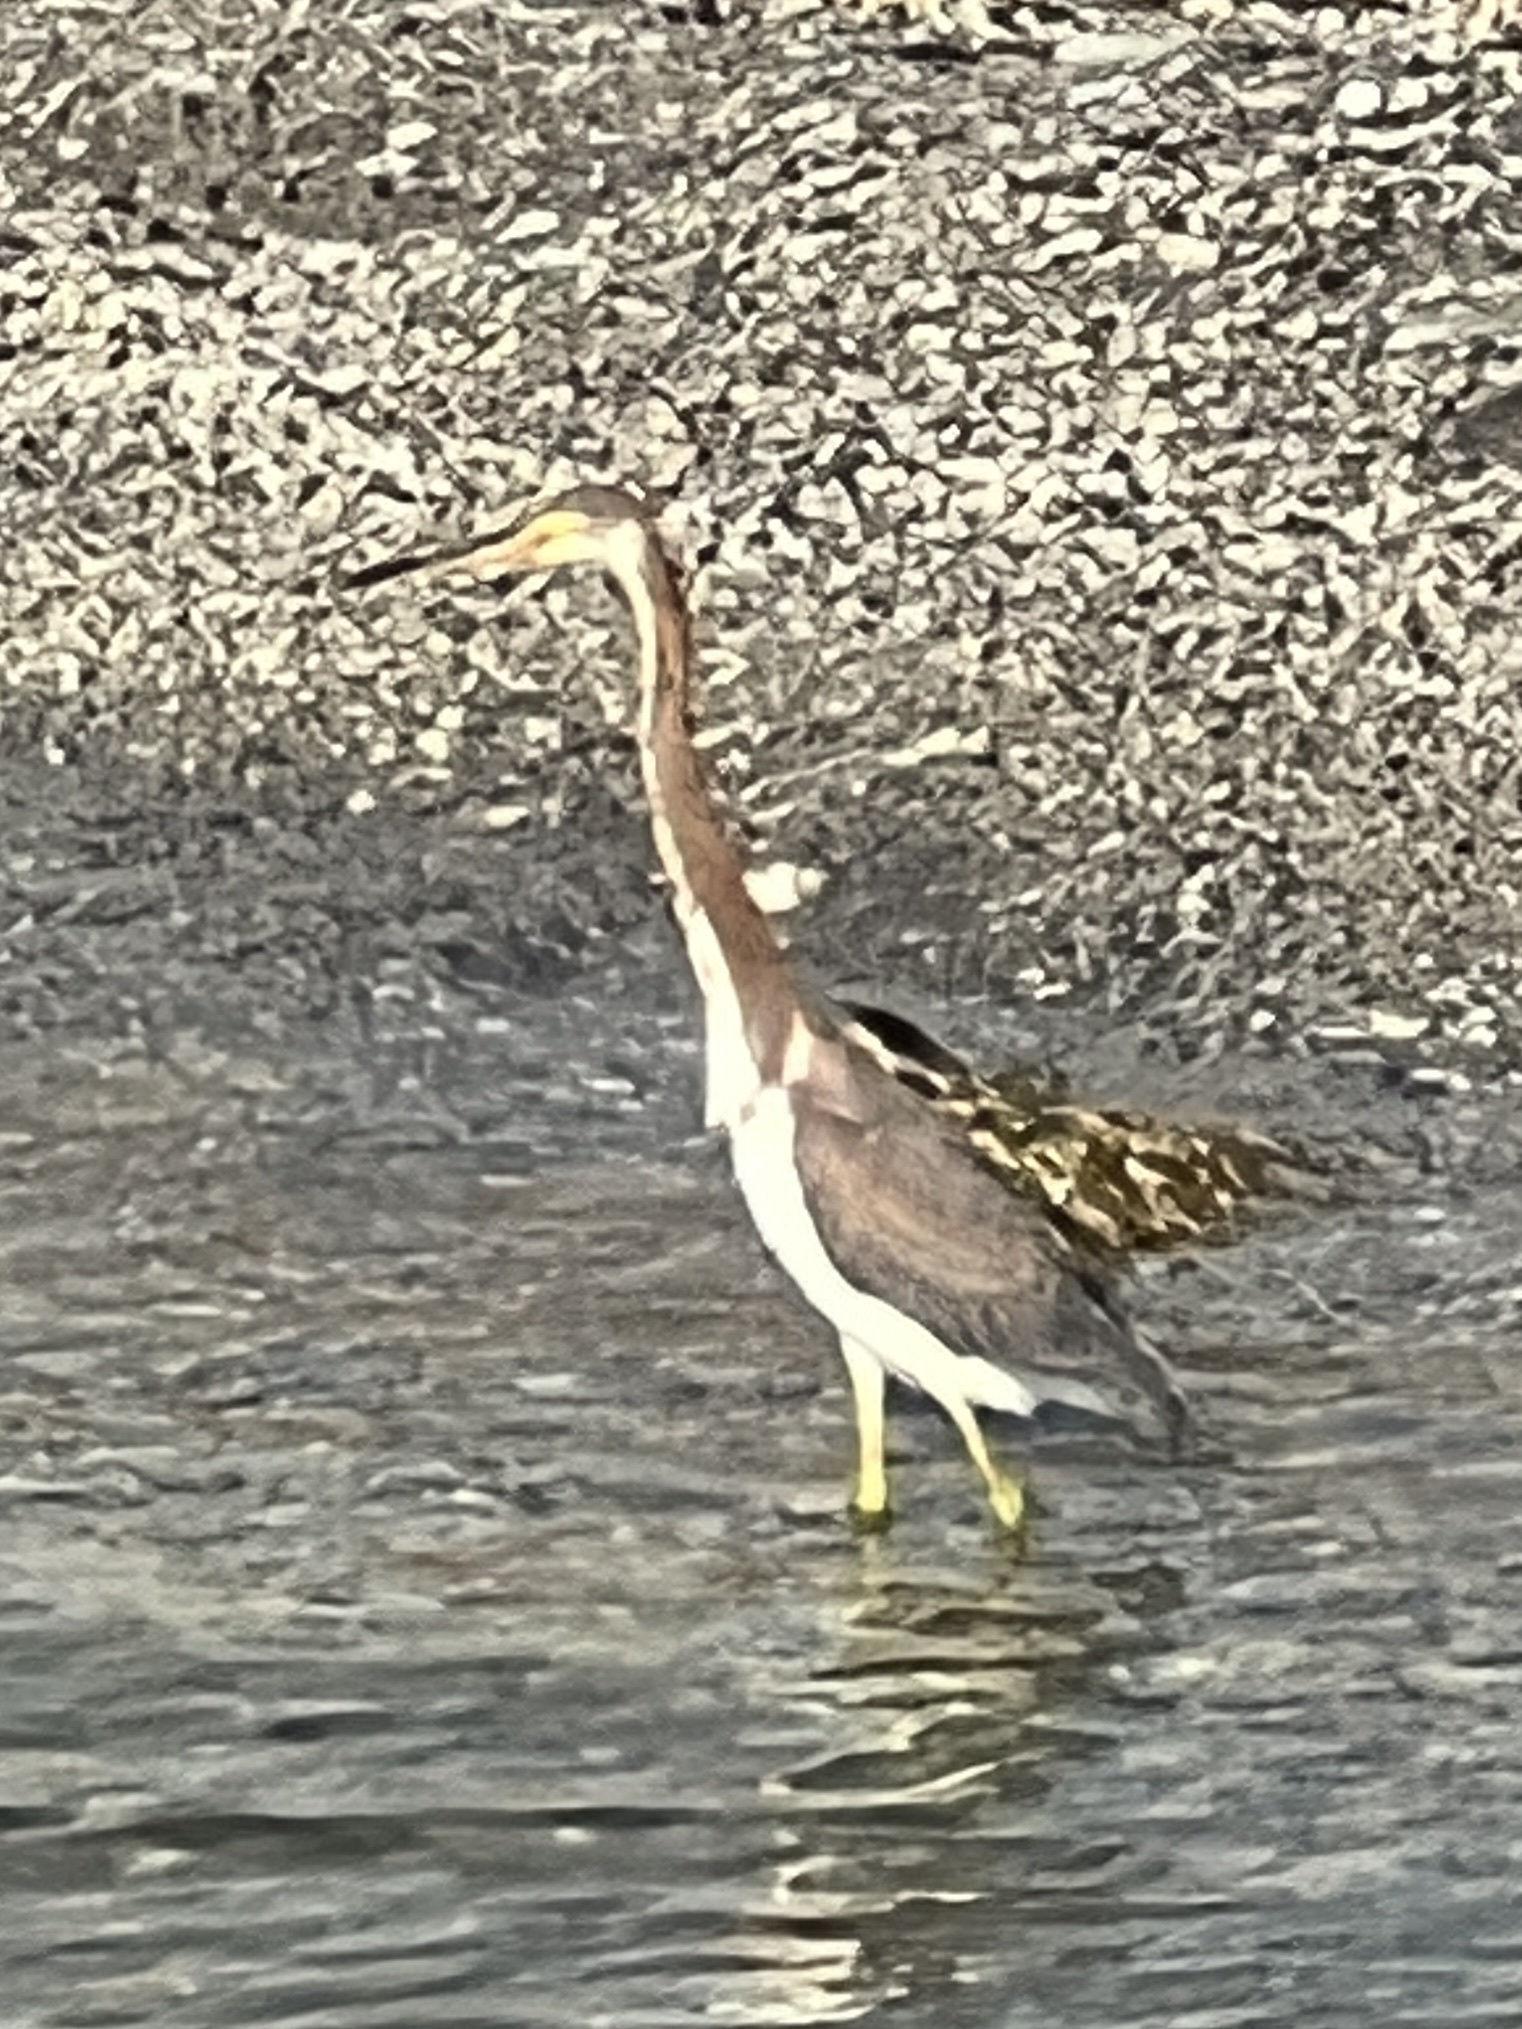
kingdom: Animalia
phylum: Chordata
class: Aves
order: Pelecaniformes
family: Ardeidae
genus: Egretta
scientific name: Egretta tricolor
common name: Tricolored heron
